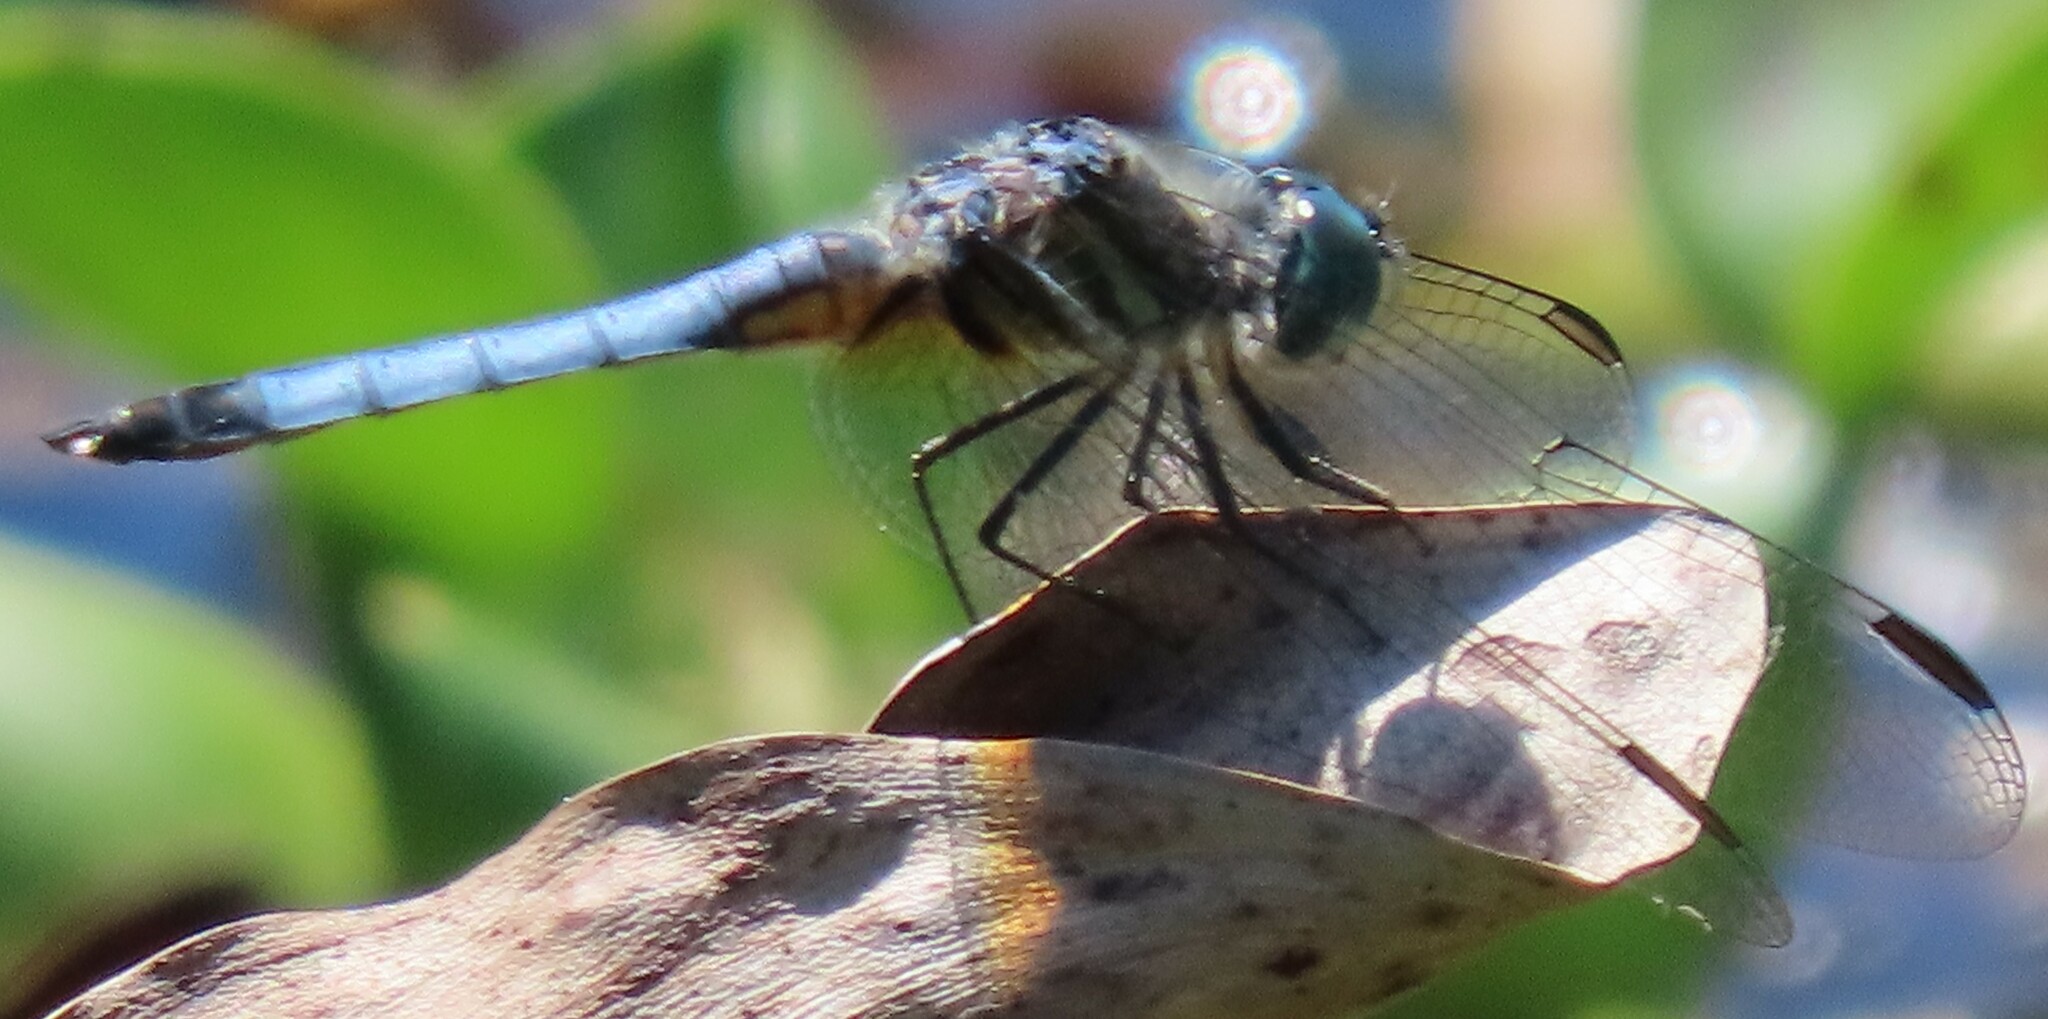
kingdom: Animalia
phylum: Arthropoda
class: Insecta
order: Odonata
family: Libellulidae
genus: Pachydiplax
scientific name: Pachydiplax longipennis
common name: Blue dasher
